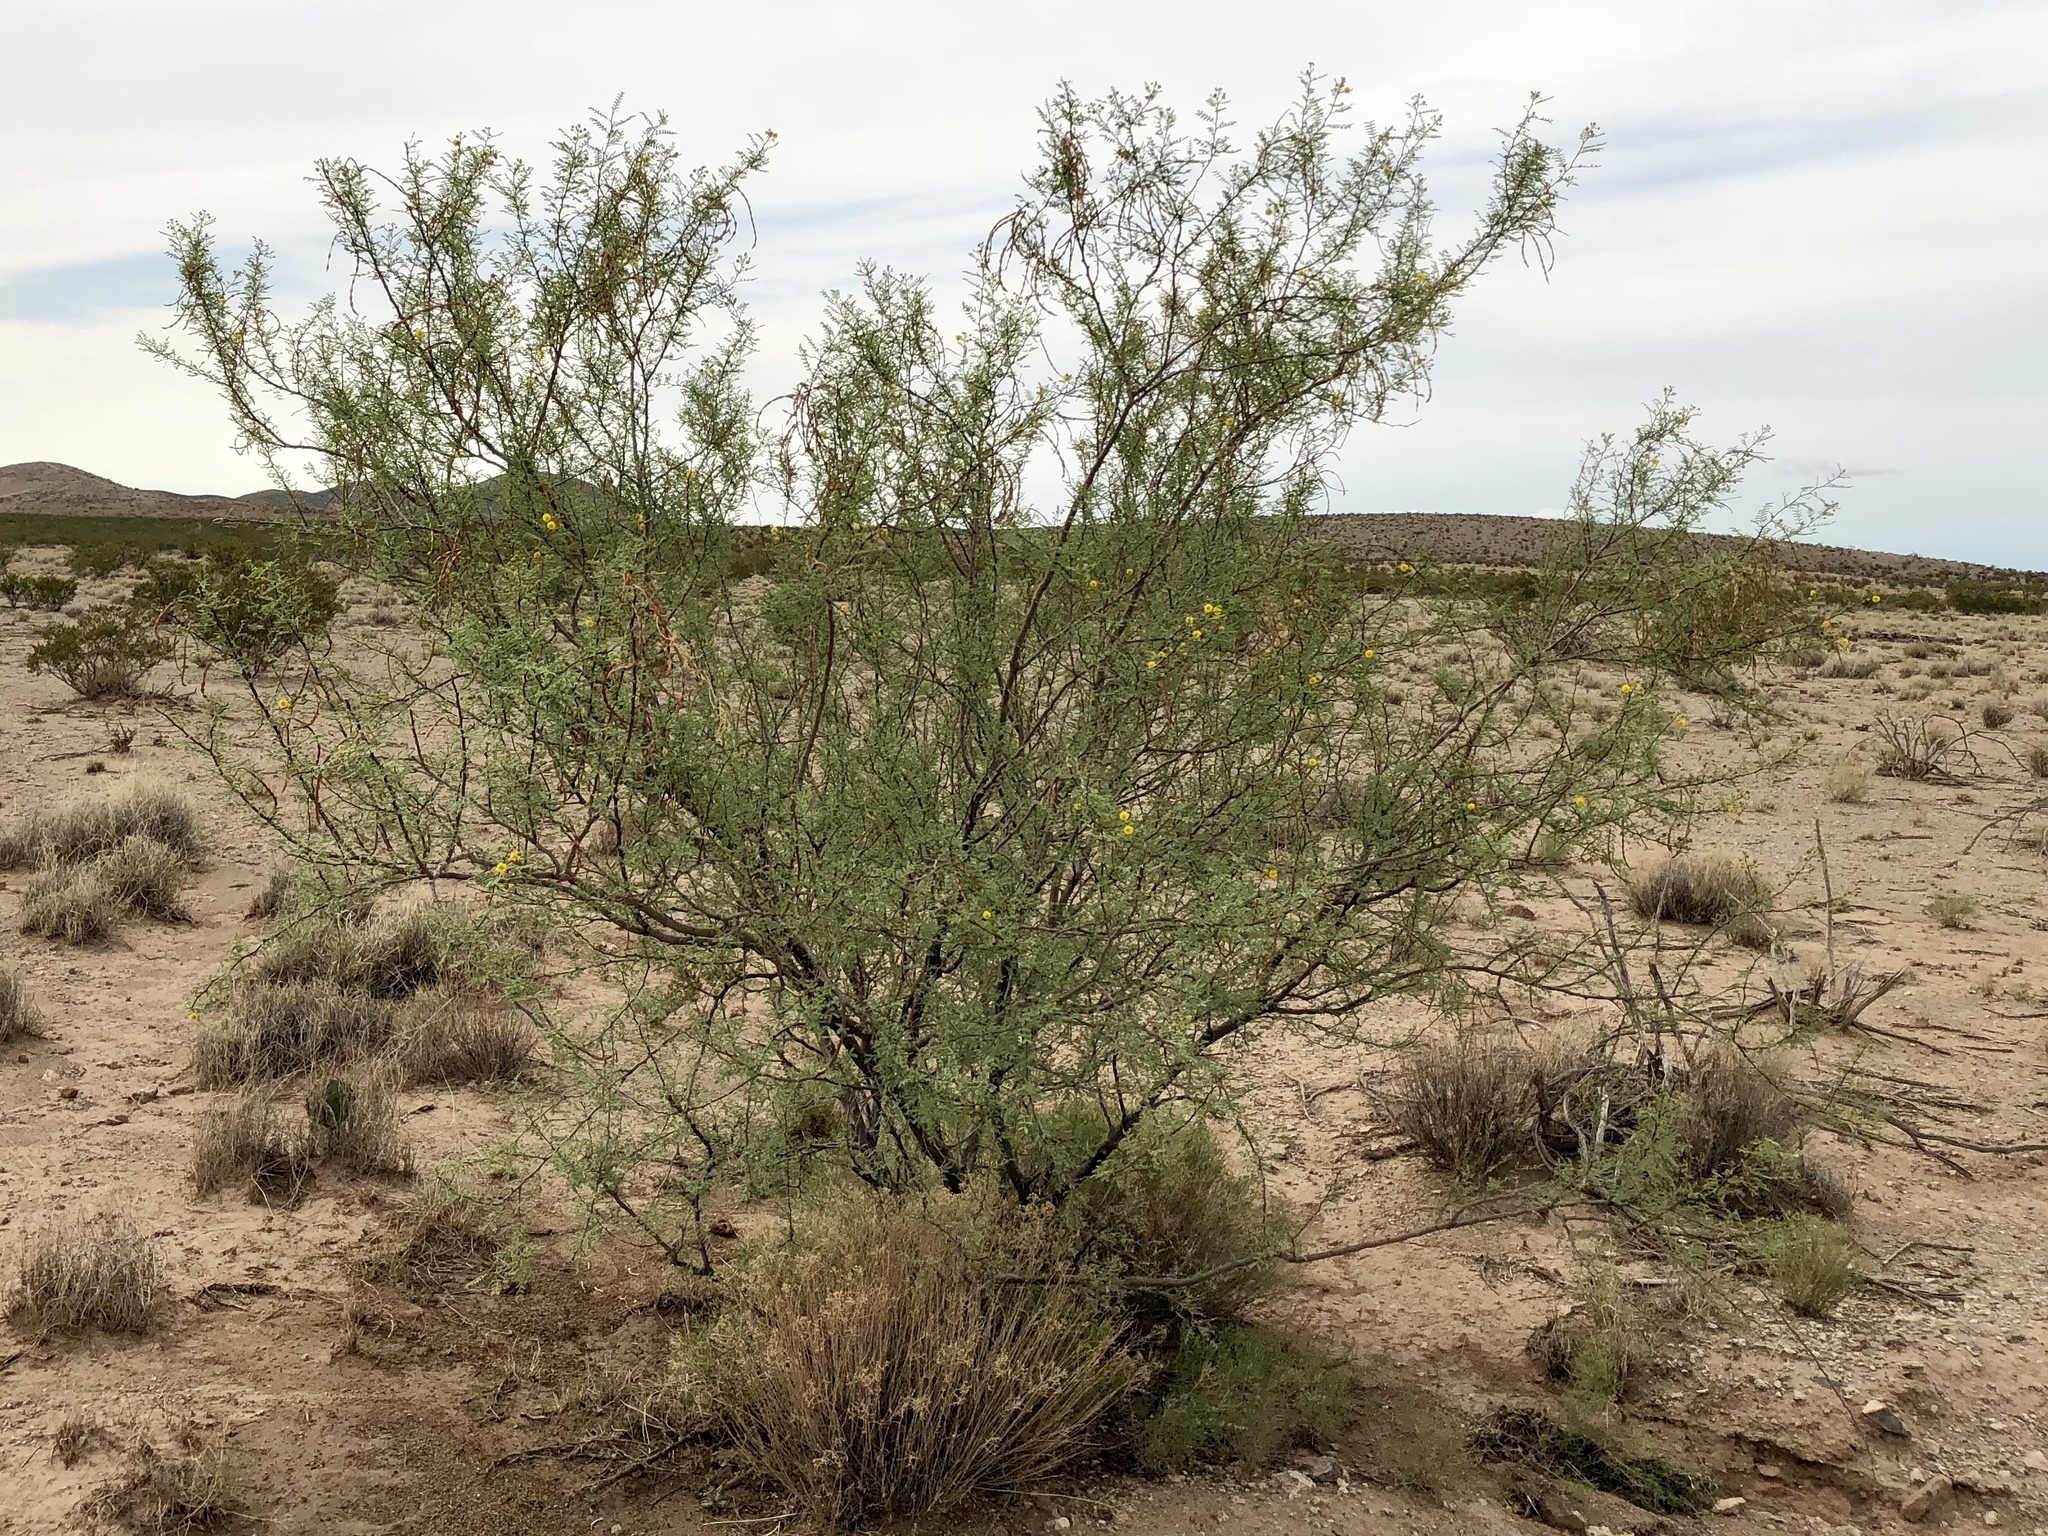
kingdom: Plantae
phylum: Tracheophyta
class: Magnoliopsida
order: Fabales
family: Fabaceae
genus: Vachellia
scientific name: Vachellia constricta
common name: Mescat acacia
